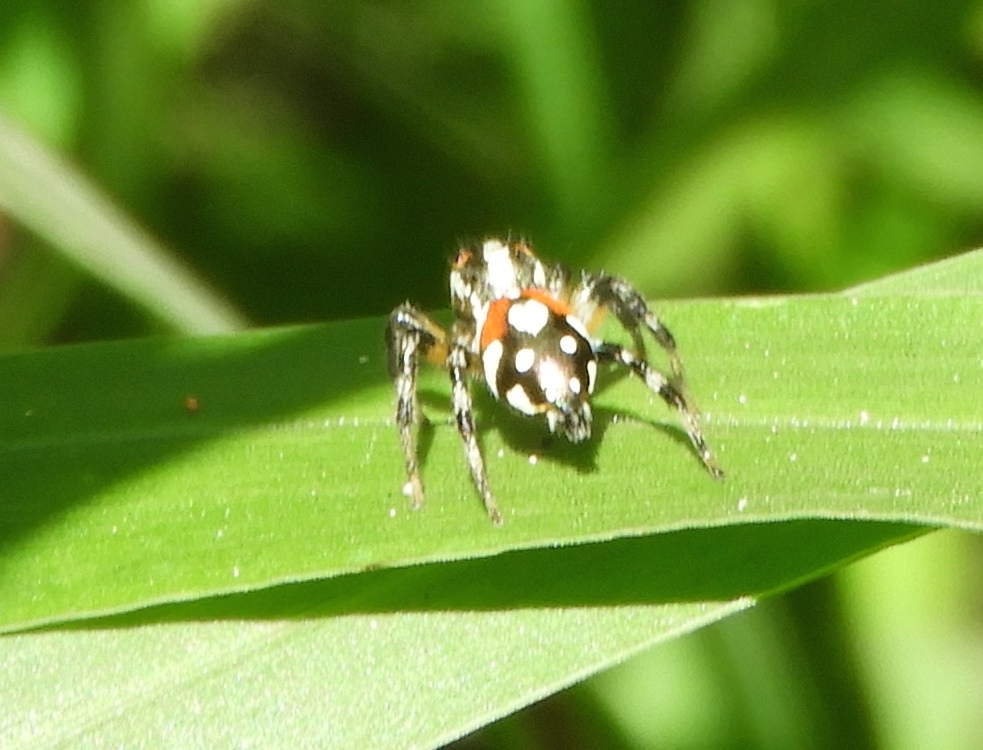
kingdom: Animalia
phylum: Arthropoda
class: Arachnida
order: Araneae
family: Salticidae
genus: Nycerella
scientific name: Nycerella delecta
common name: Jumping spiders
